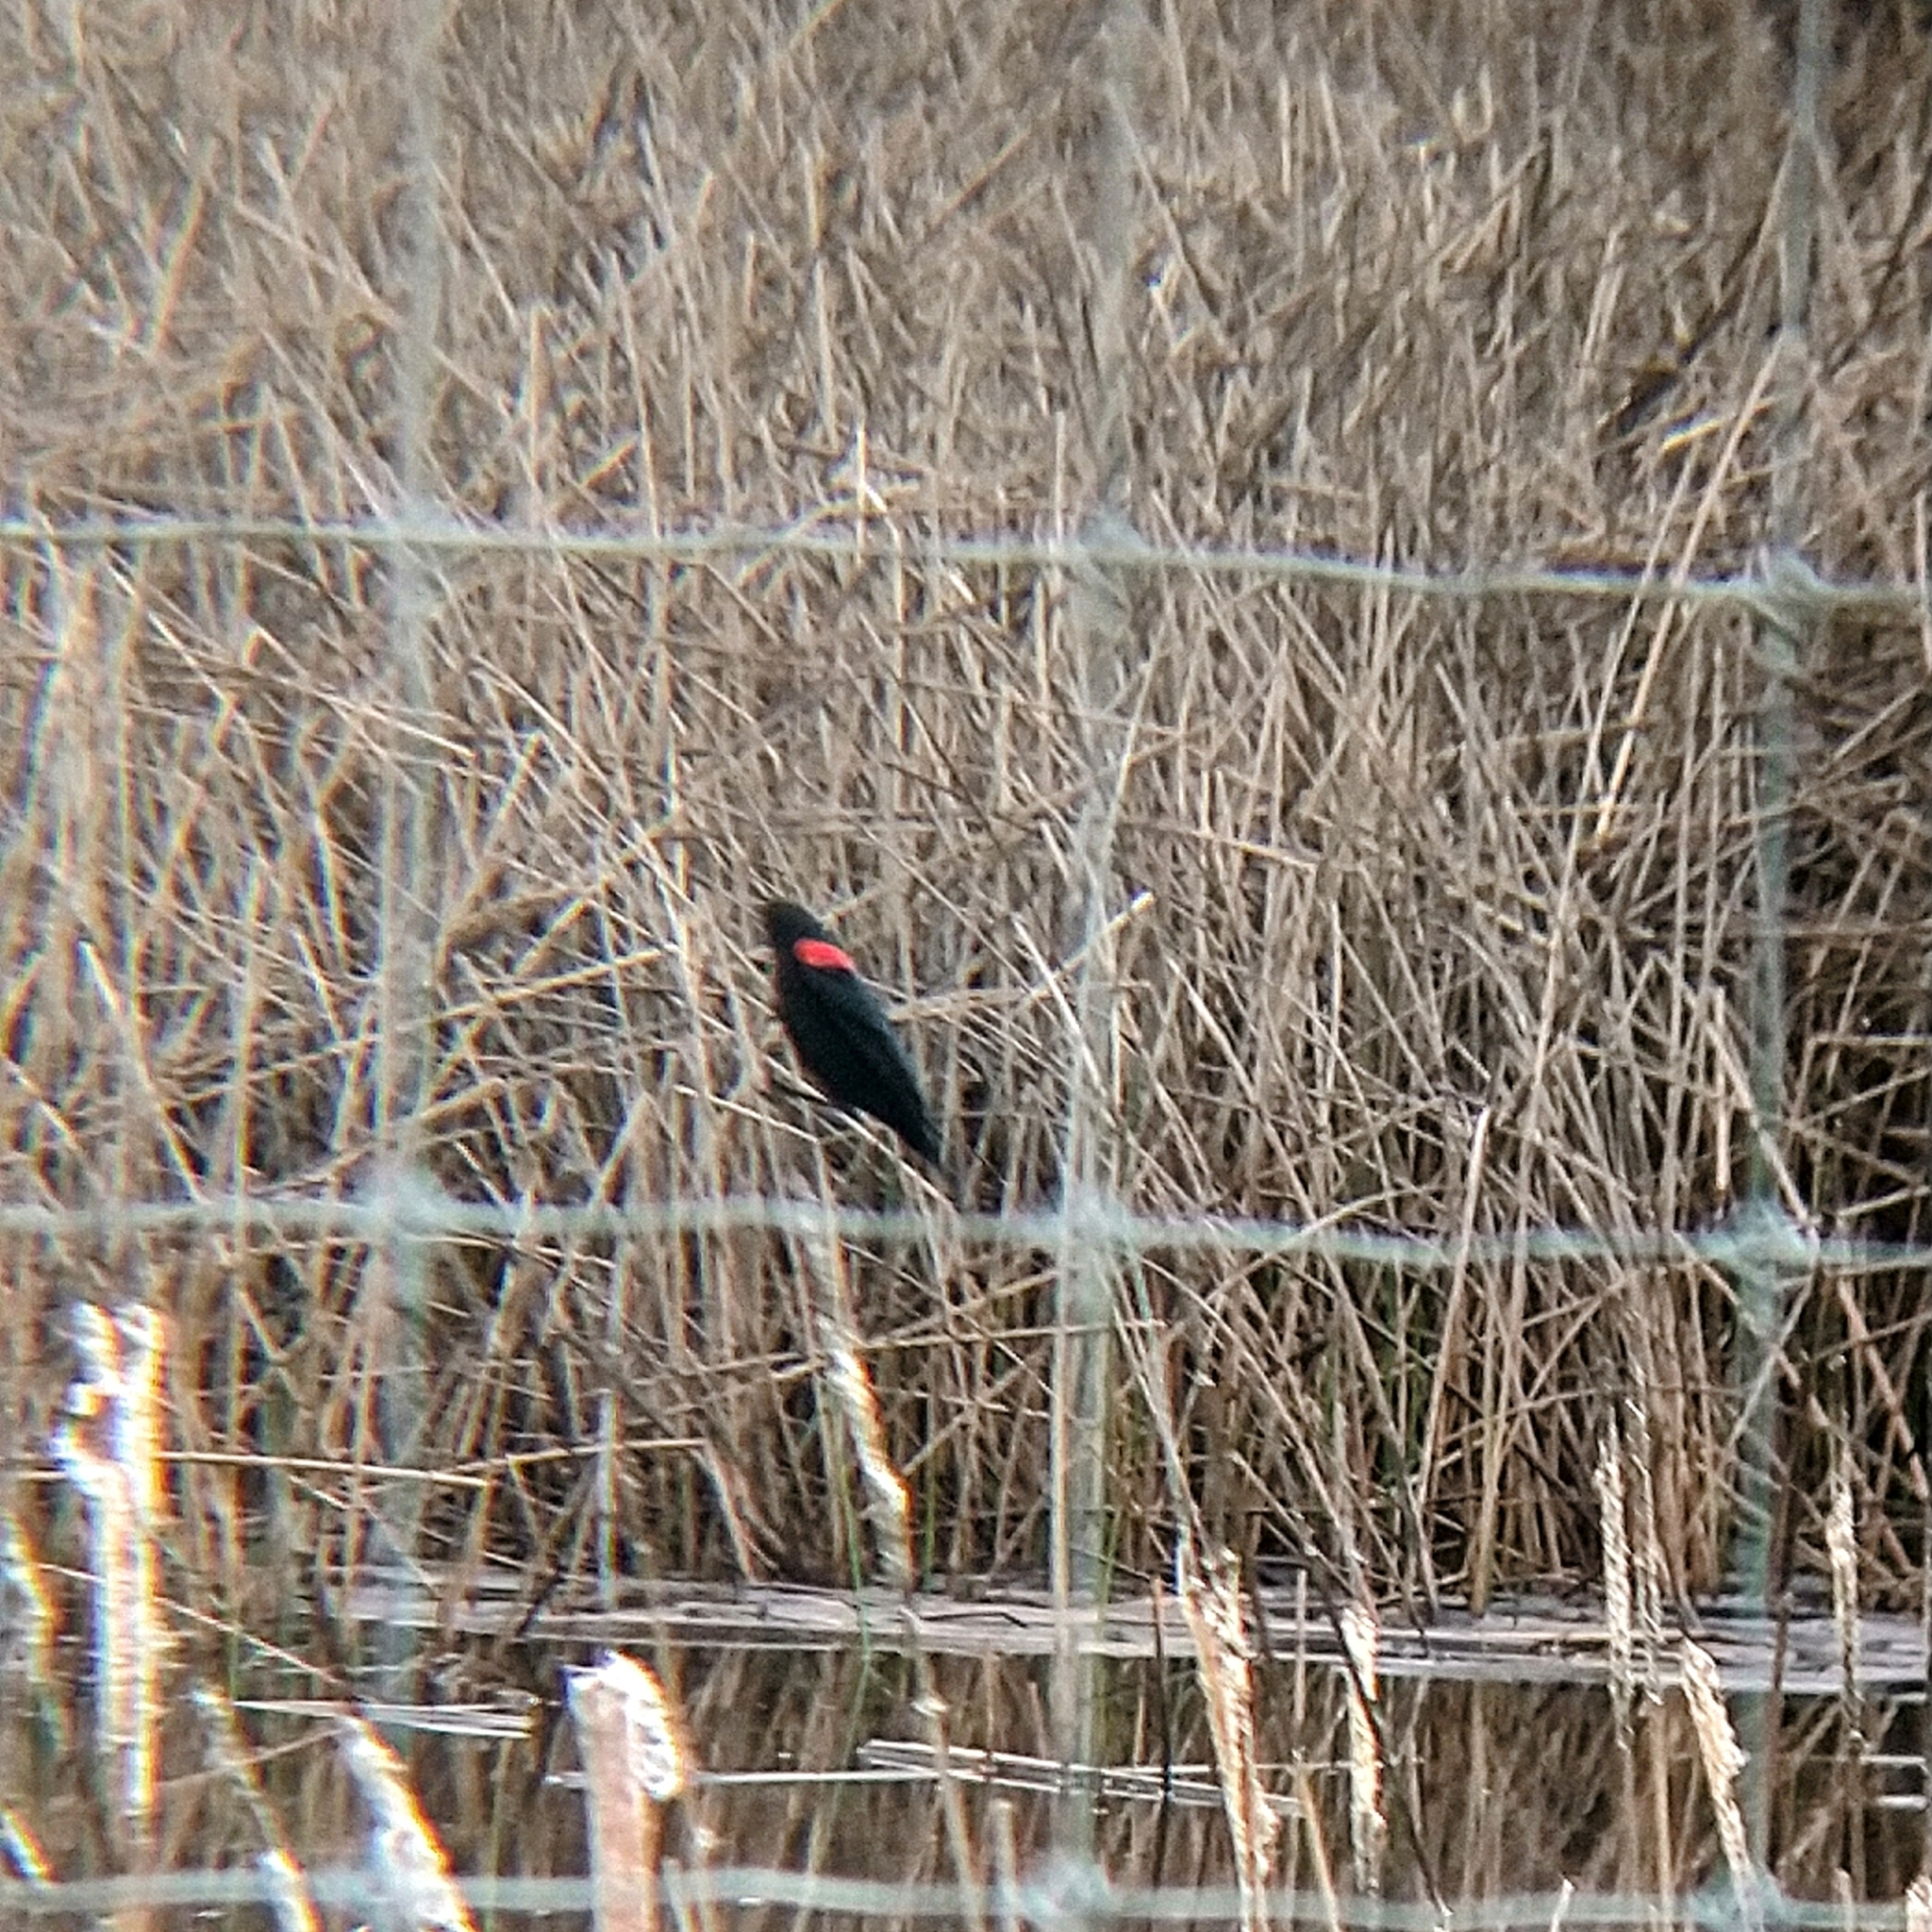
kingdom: Animalia
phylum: Chordata
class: Aves
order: Passeriformes
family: Icteridae
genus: Agelaius
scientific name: Agelaius phoeniceus
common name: Red-winged blackbird
